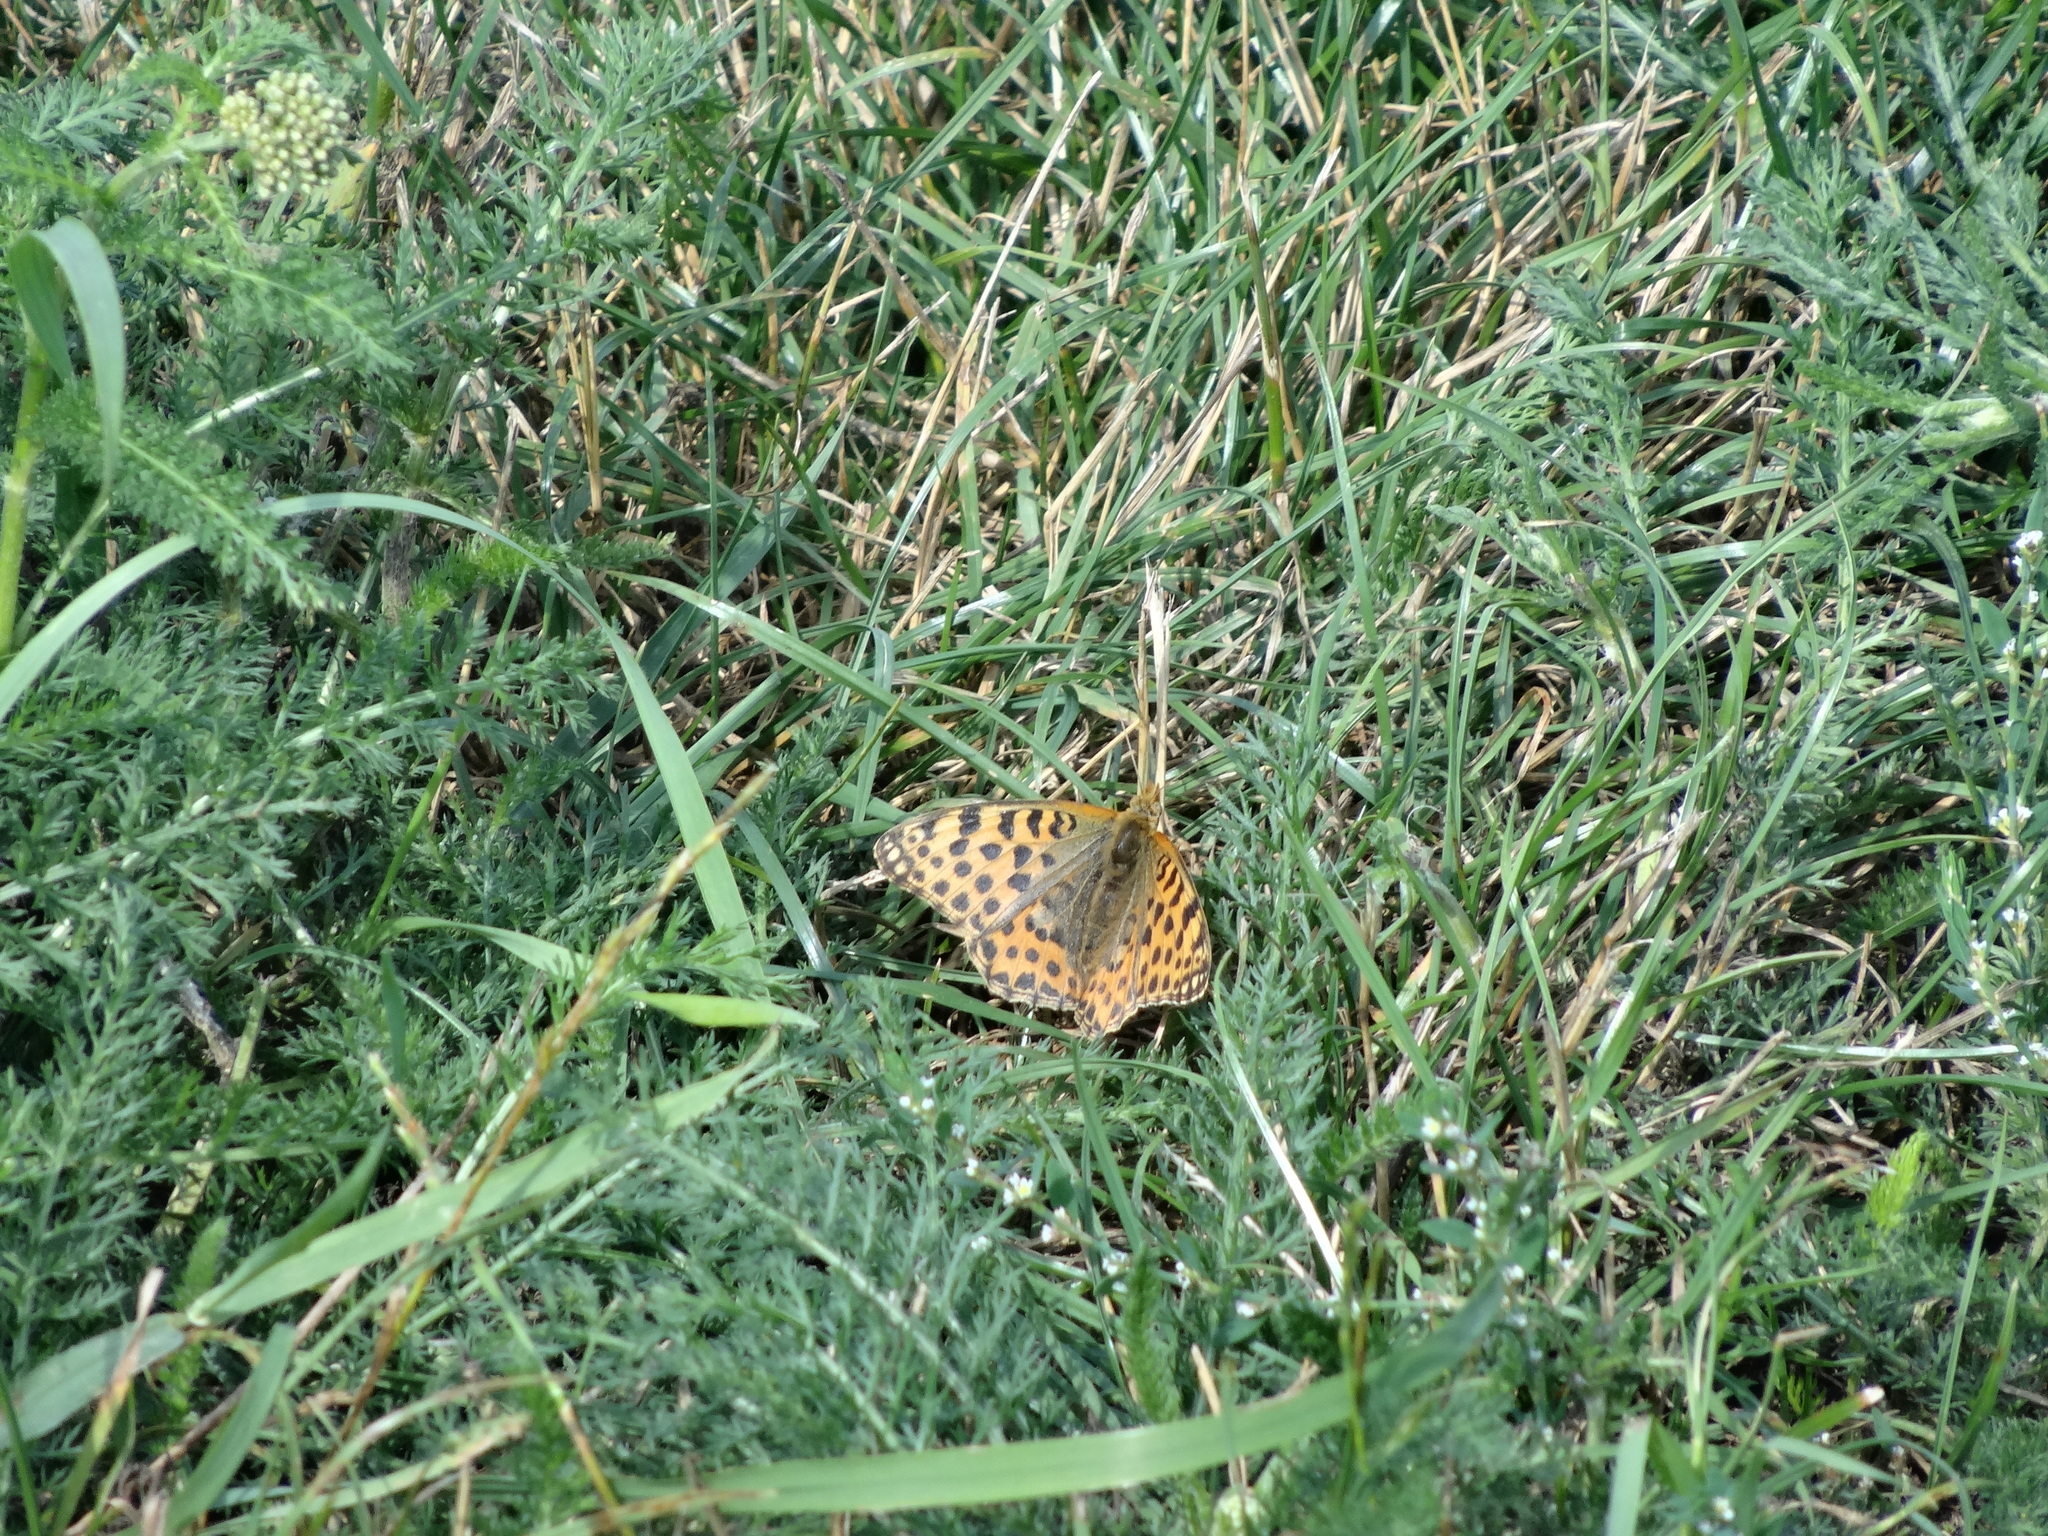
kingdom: Animalia
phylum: Arthropoda
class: Insecta
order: Lepidoptera
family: Nymphalidae
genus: Issoria
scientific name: Issoria lathonia
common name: Queen of spain fritillary
